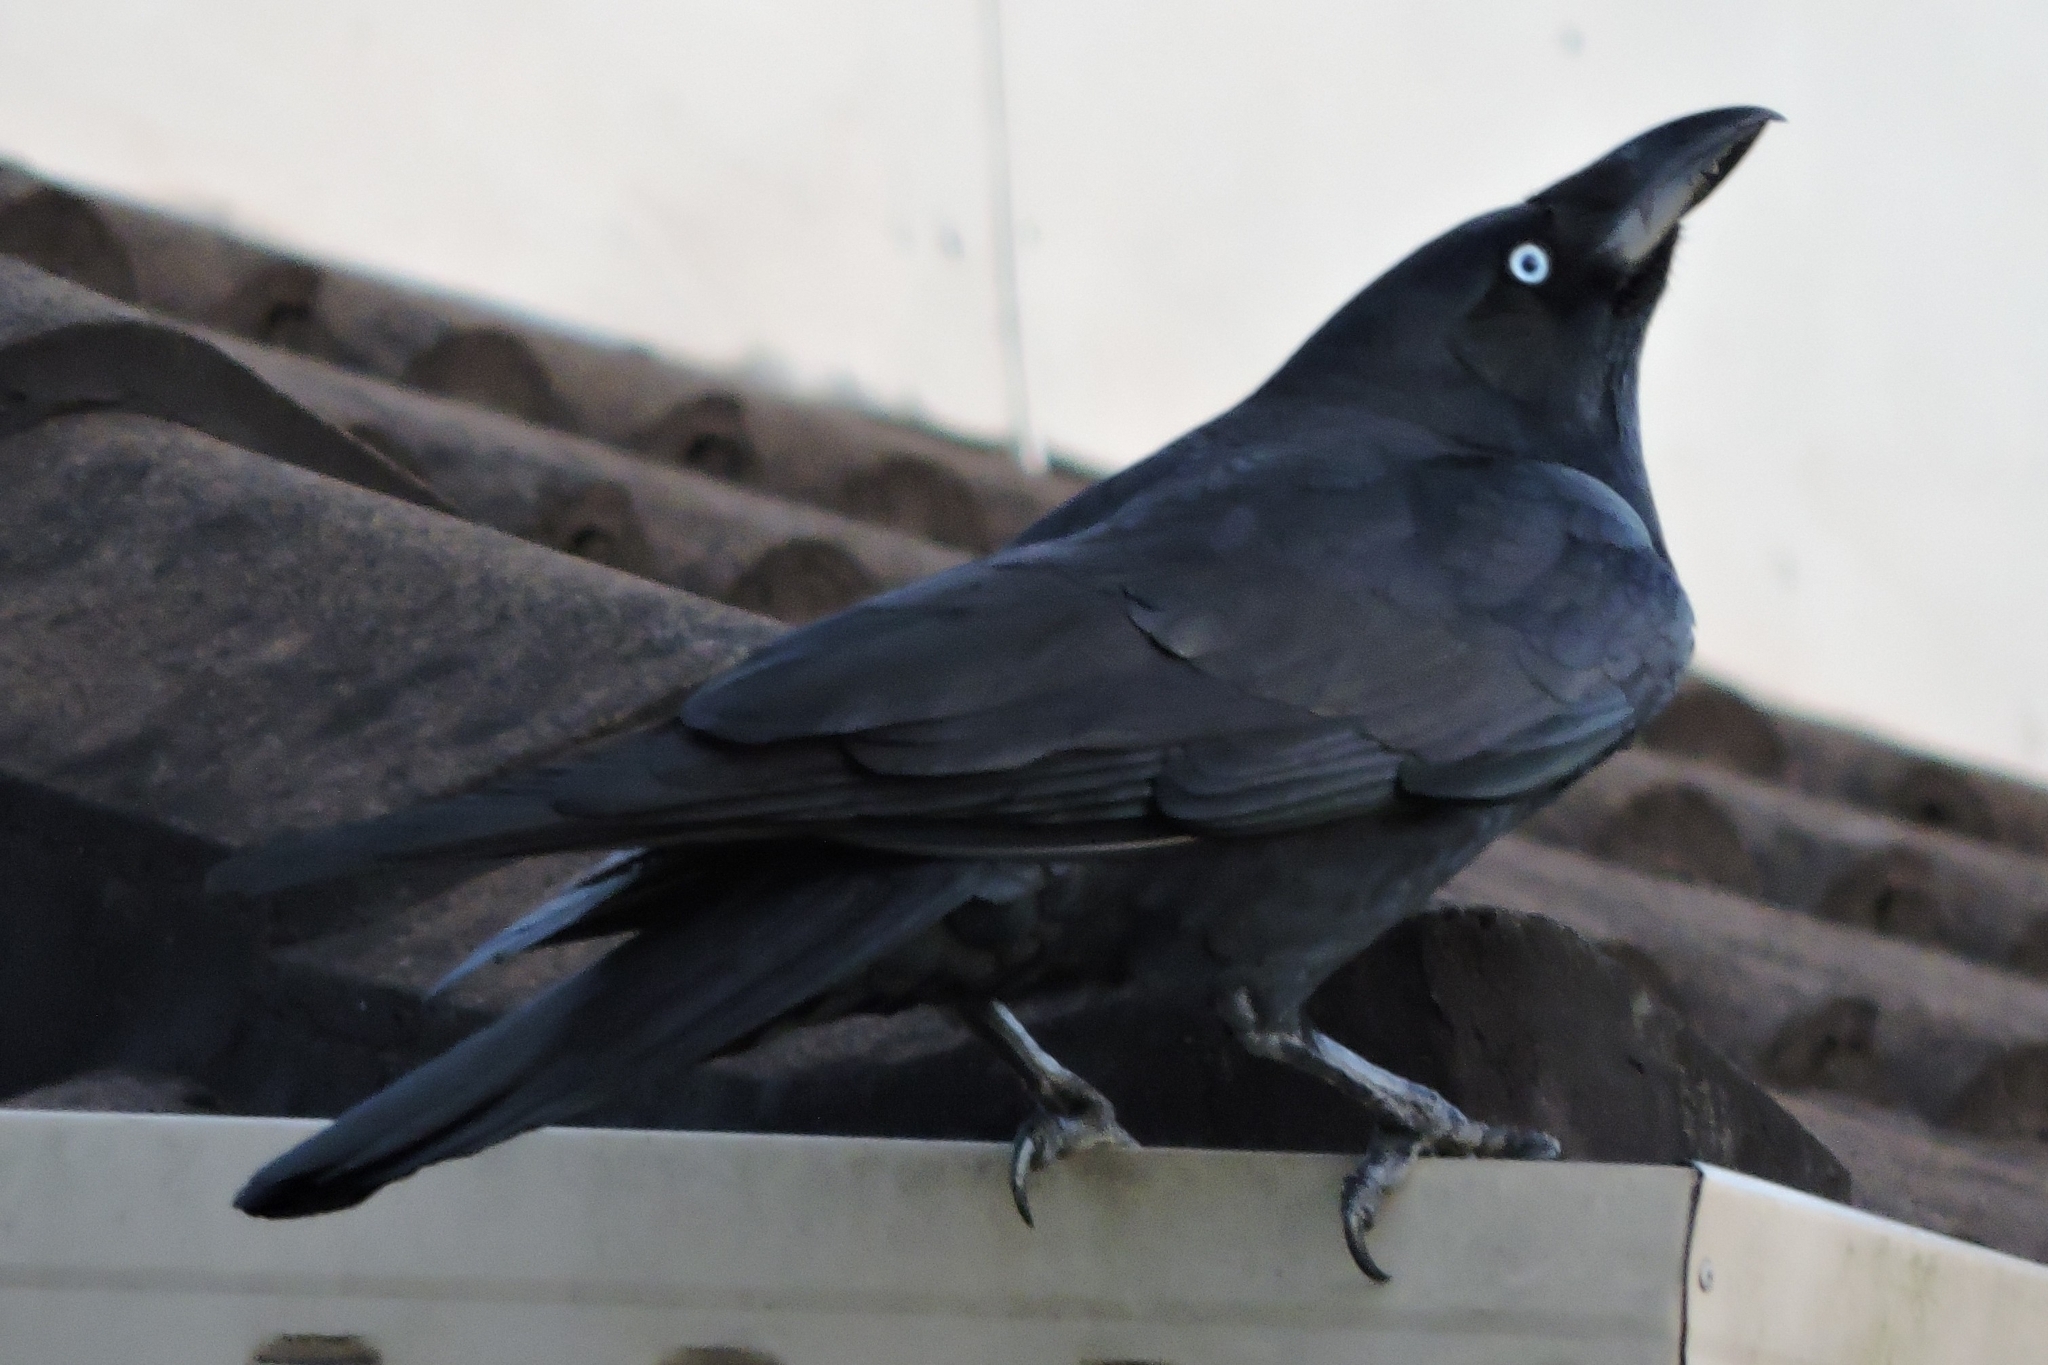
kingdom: Animalia
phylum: Chordata
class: Aves
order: Passeriformes
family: Corvidae
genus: Corvus
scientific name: Corvus orru
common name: Torresian crow
